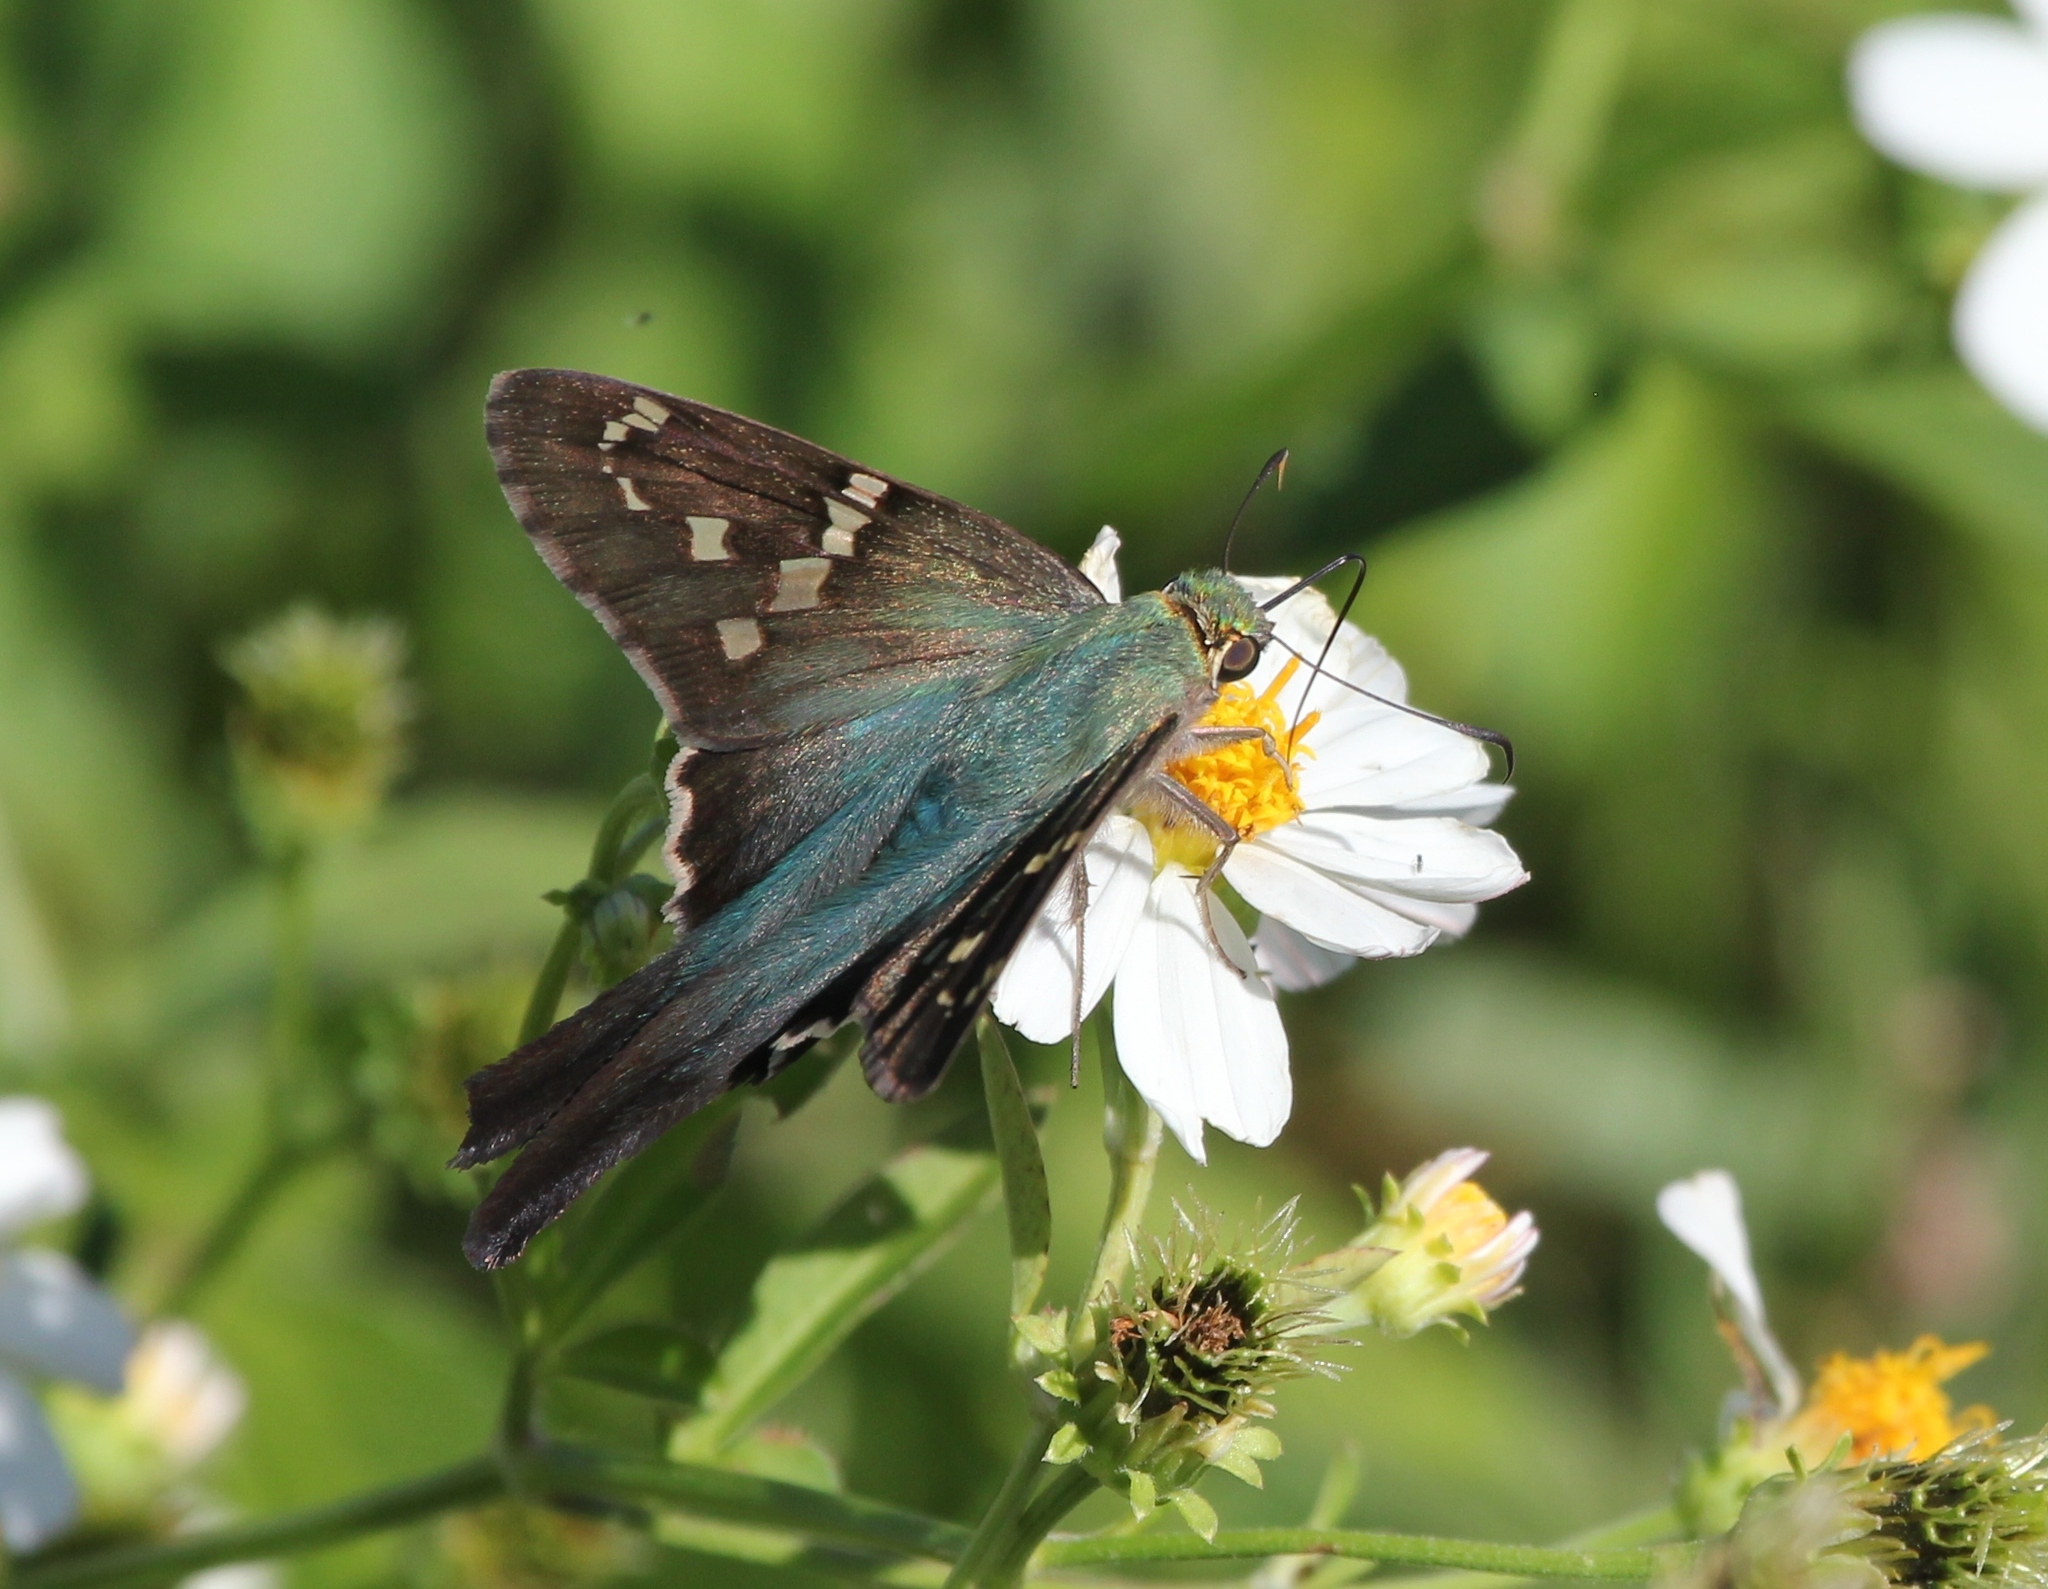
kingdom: Animalia
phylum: Arthropoda
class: Insecta
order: Lepidoptera
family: Hesperiidae
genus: Urbanus
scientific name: Urbanus proteus
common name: Long-tailed skipper
